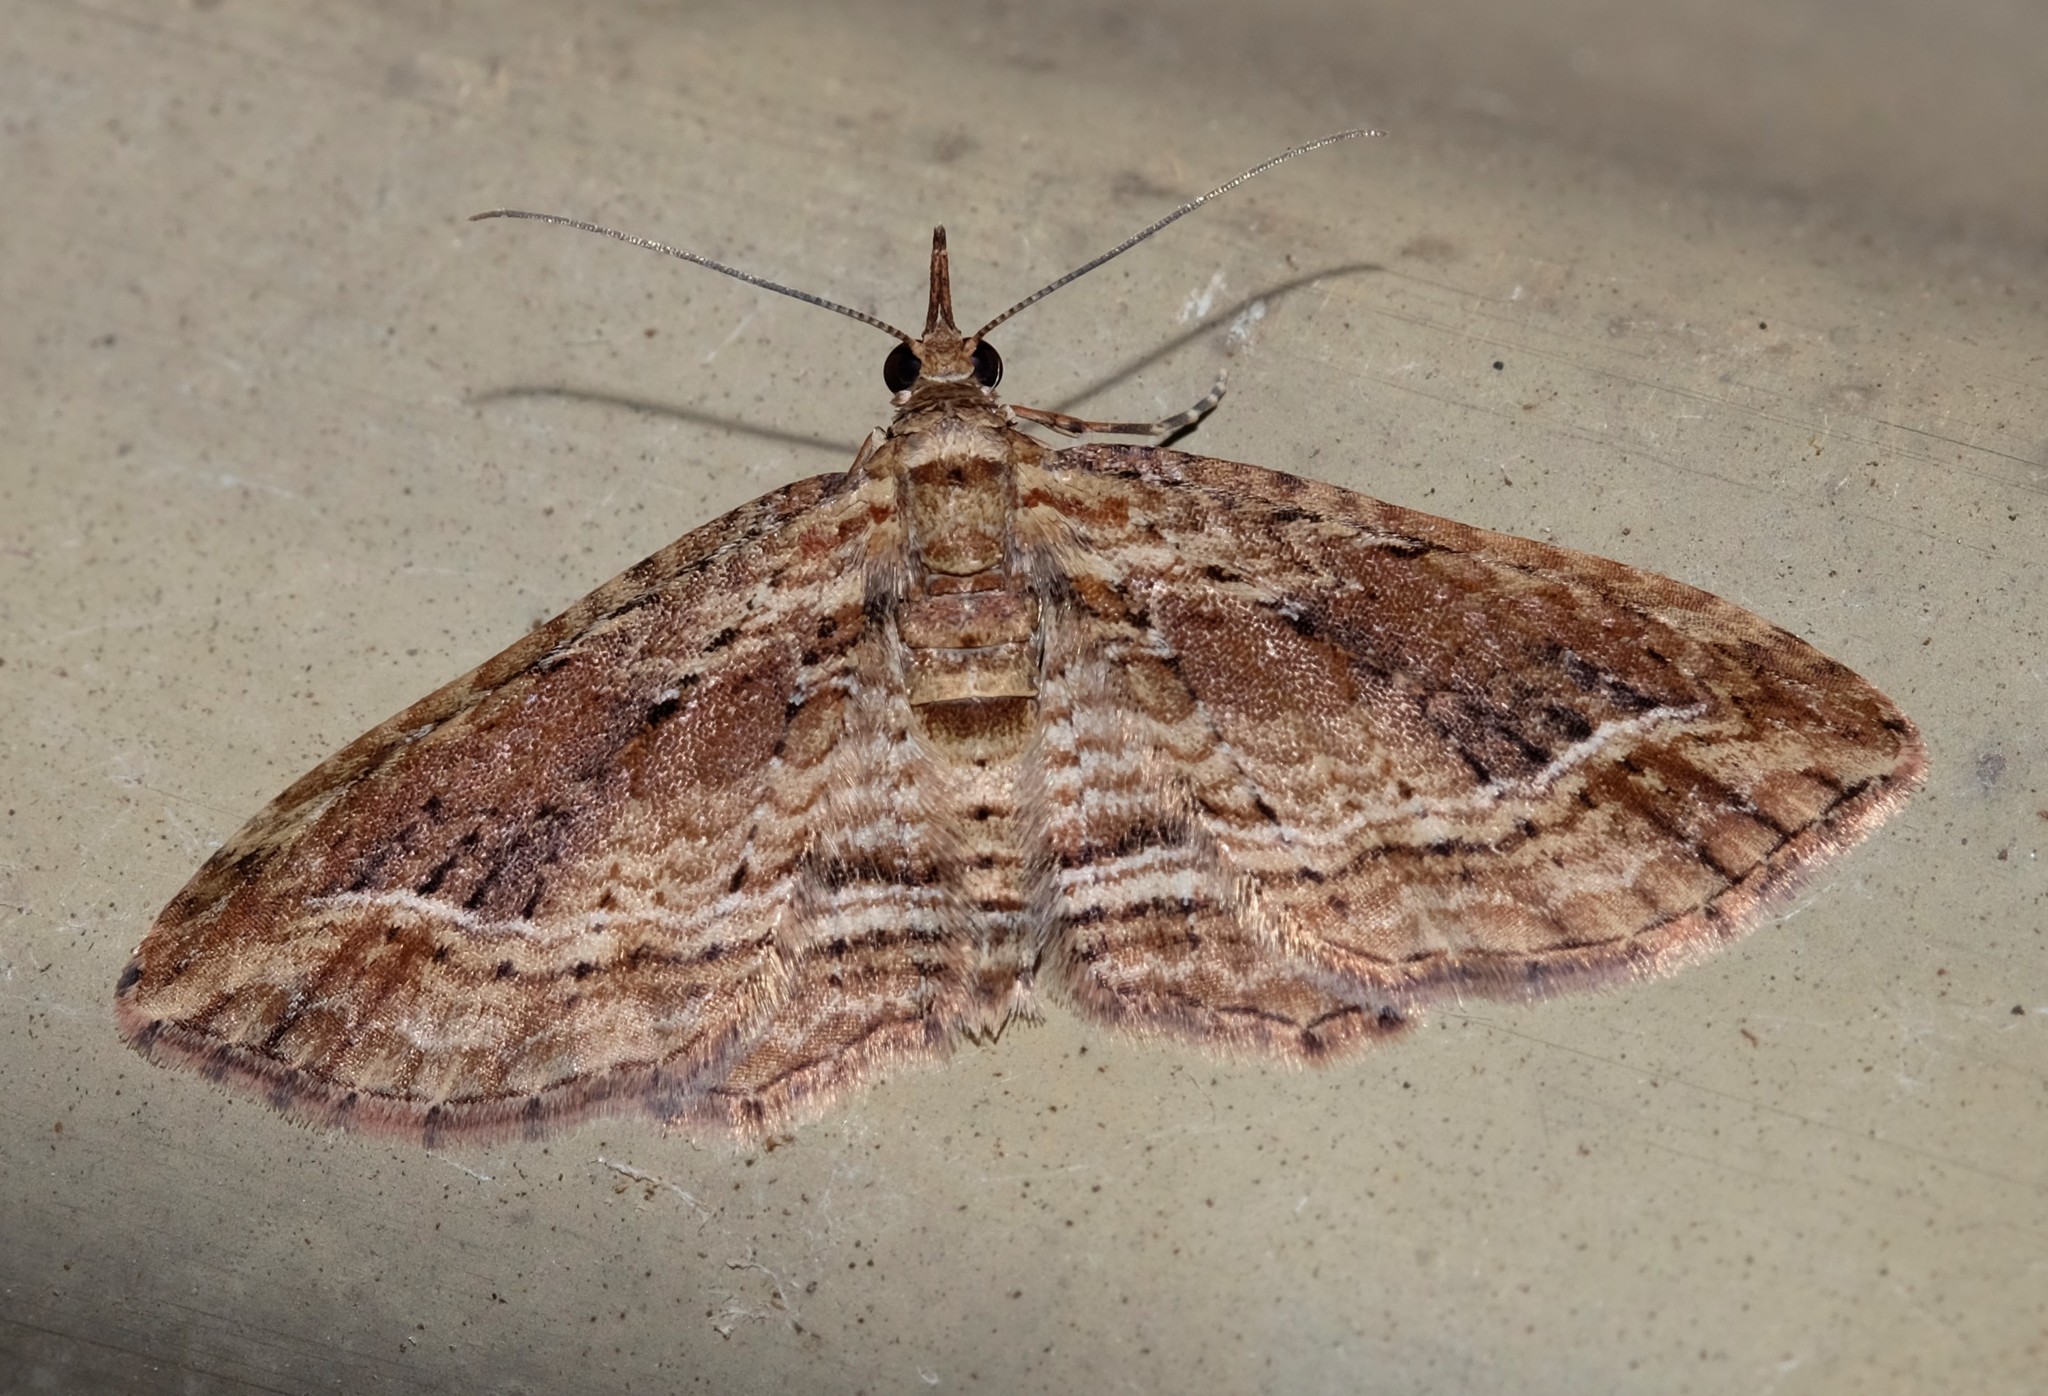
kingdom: Animalia
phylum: Arthropoda
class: Insecta
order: Lepidoptera
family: Geometridae
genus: Chloroclystis
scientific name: Chloroclystis filata
